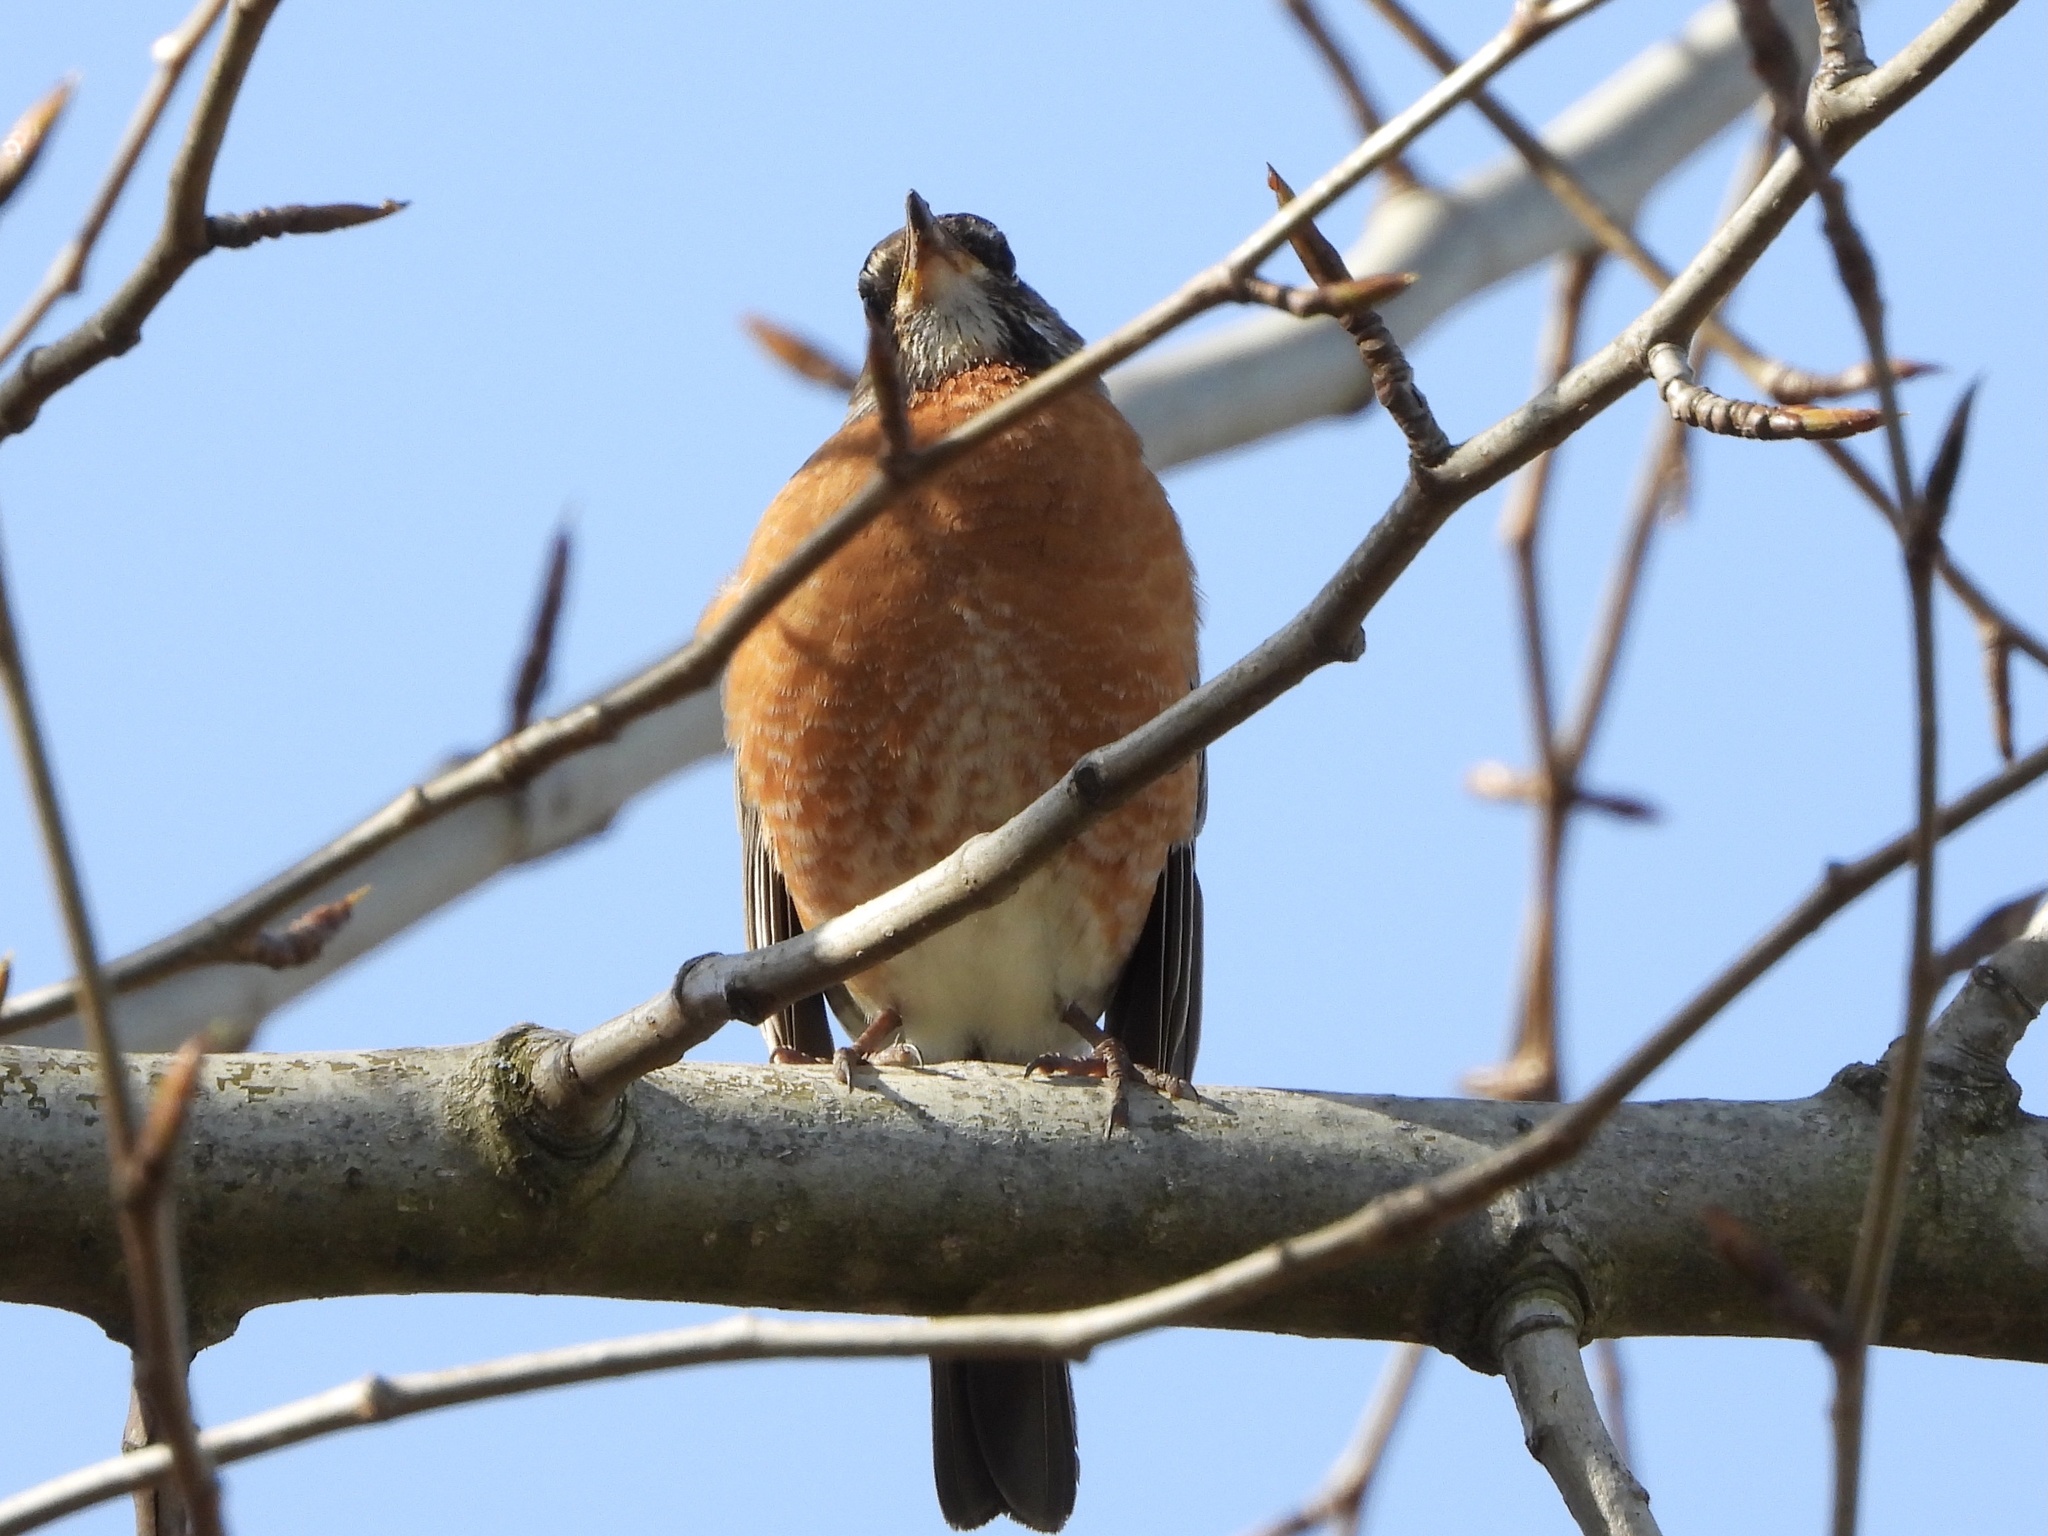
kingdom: Animalia
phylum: Chordata
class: Aves
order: Passeriformes
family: Turdidae
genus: Turdus
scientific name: Turdus migratorius
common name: American robin
